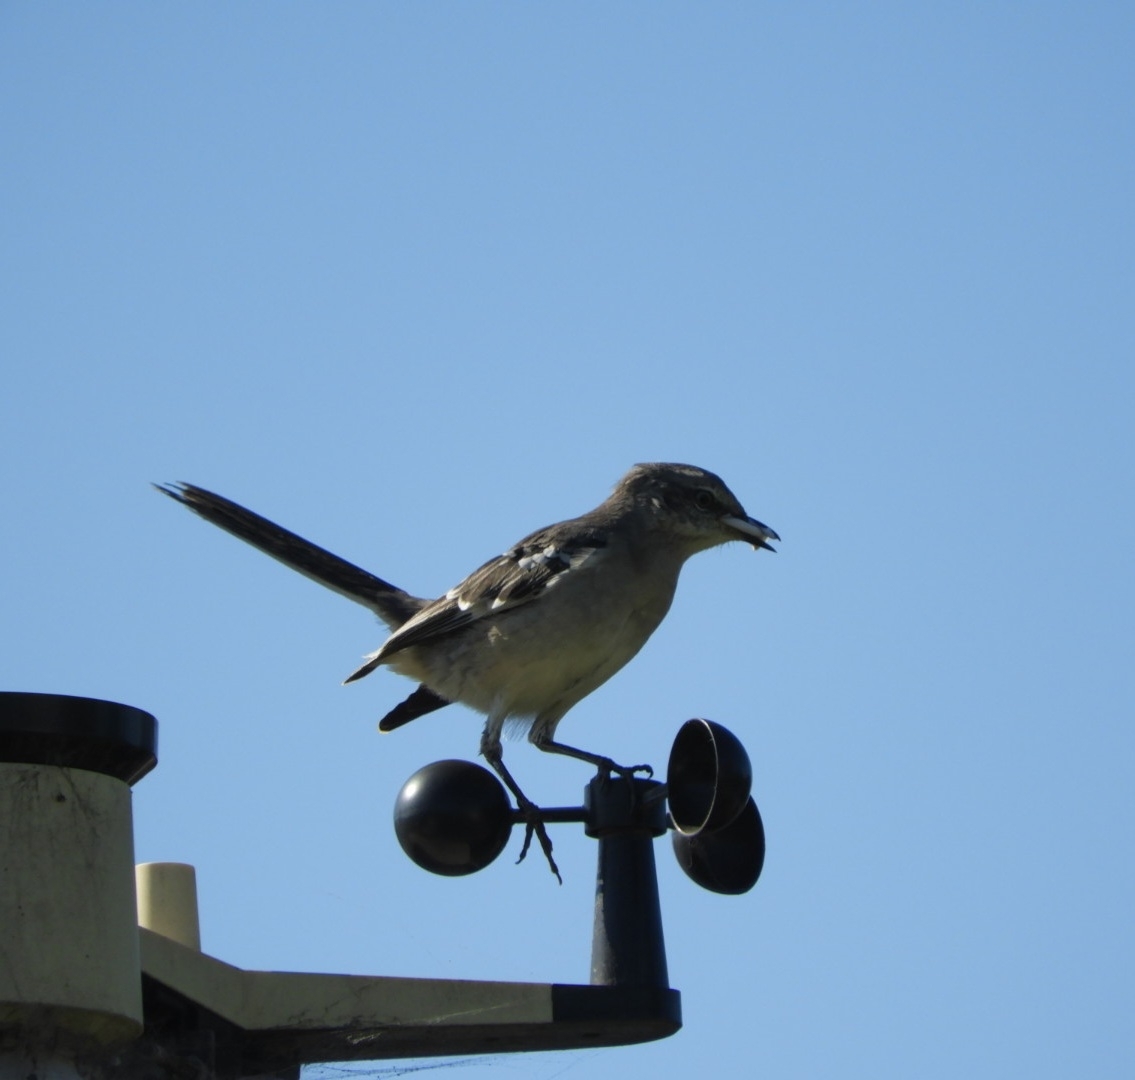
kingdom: Animalia
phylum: Chordata
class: Aves
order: Passeriformes
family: Mimidae
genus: Mimus
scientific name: Mimus polyglottos
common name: Northern mockingbird
